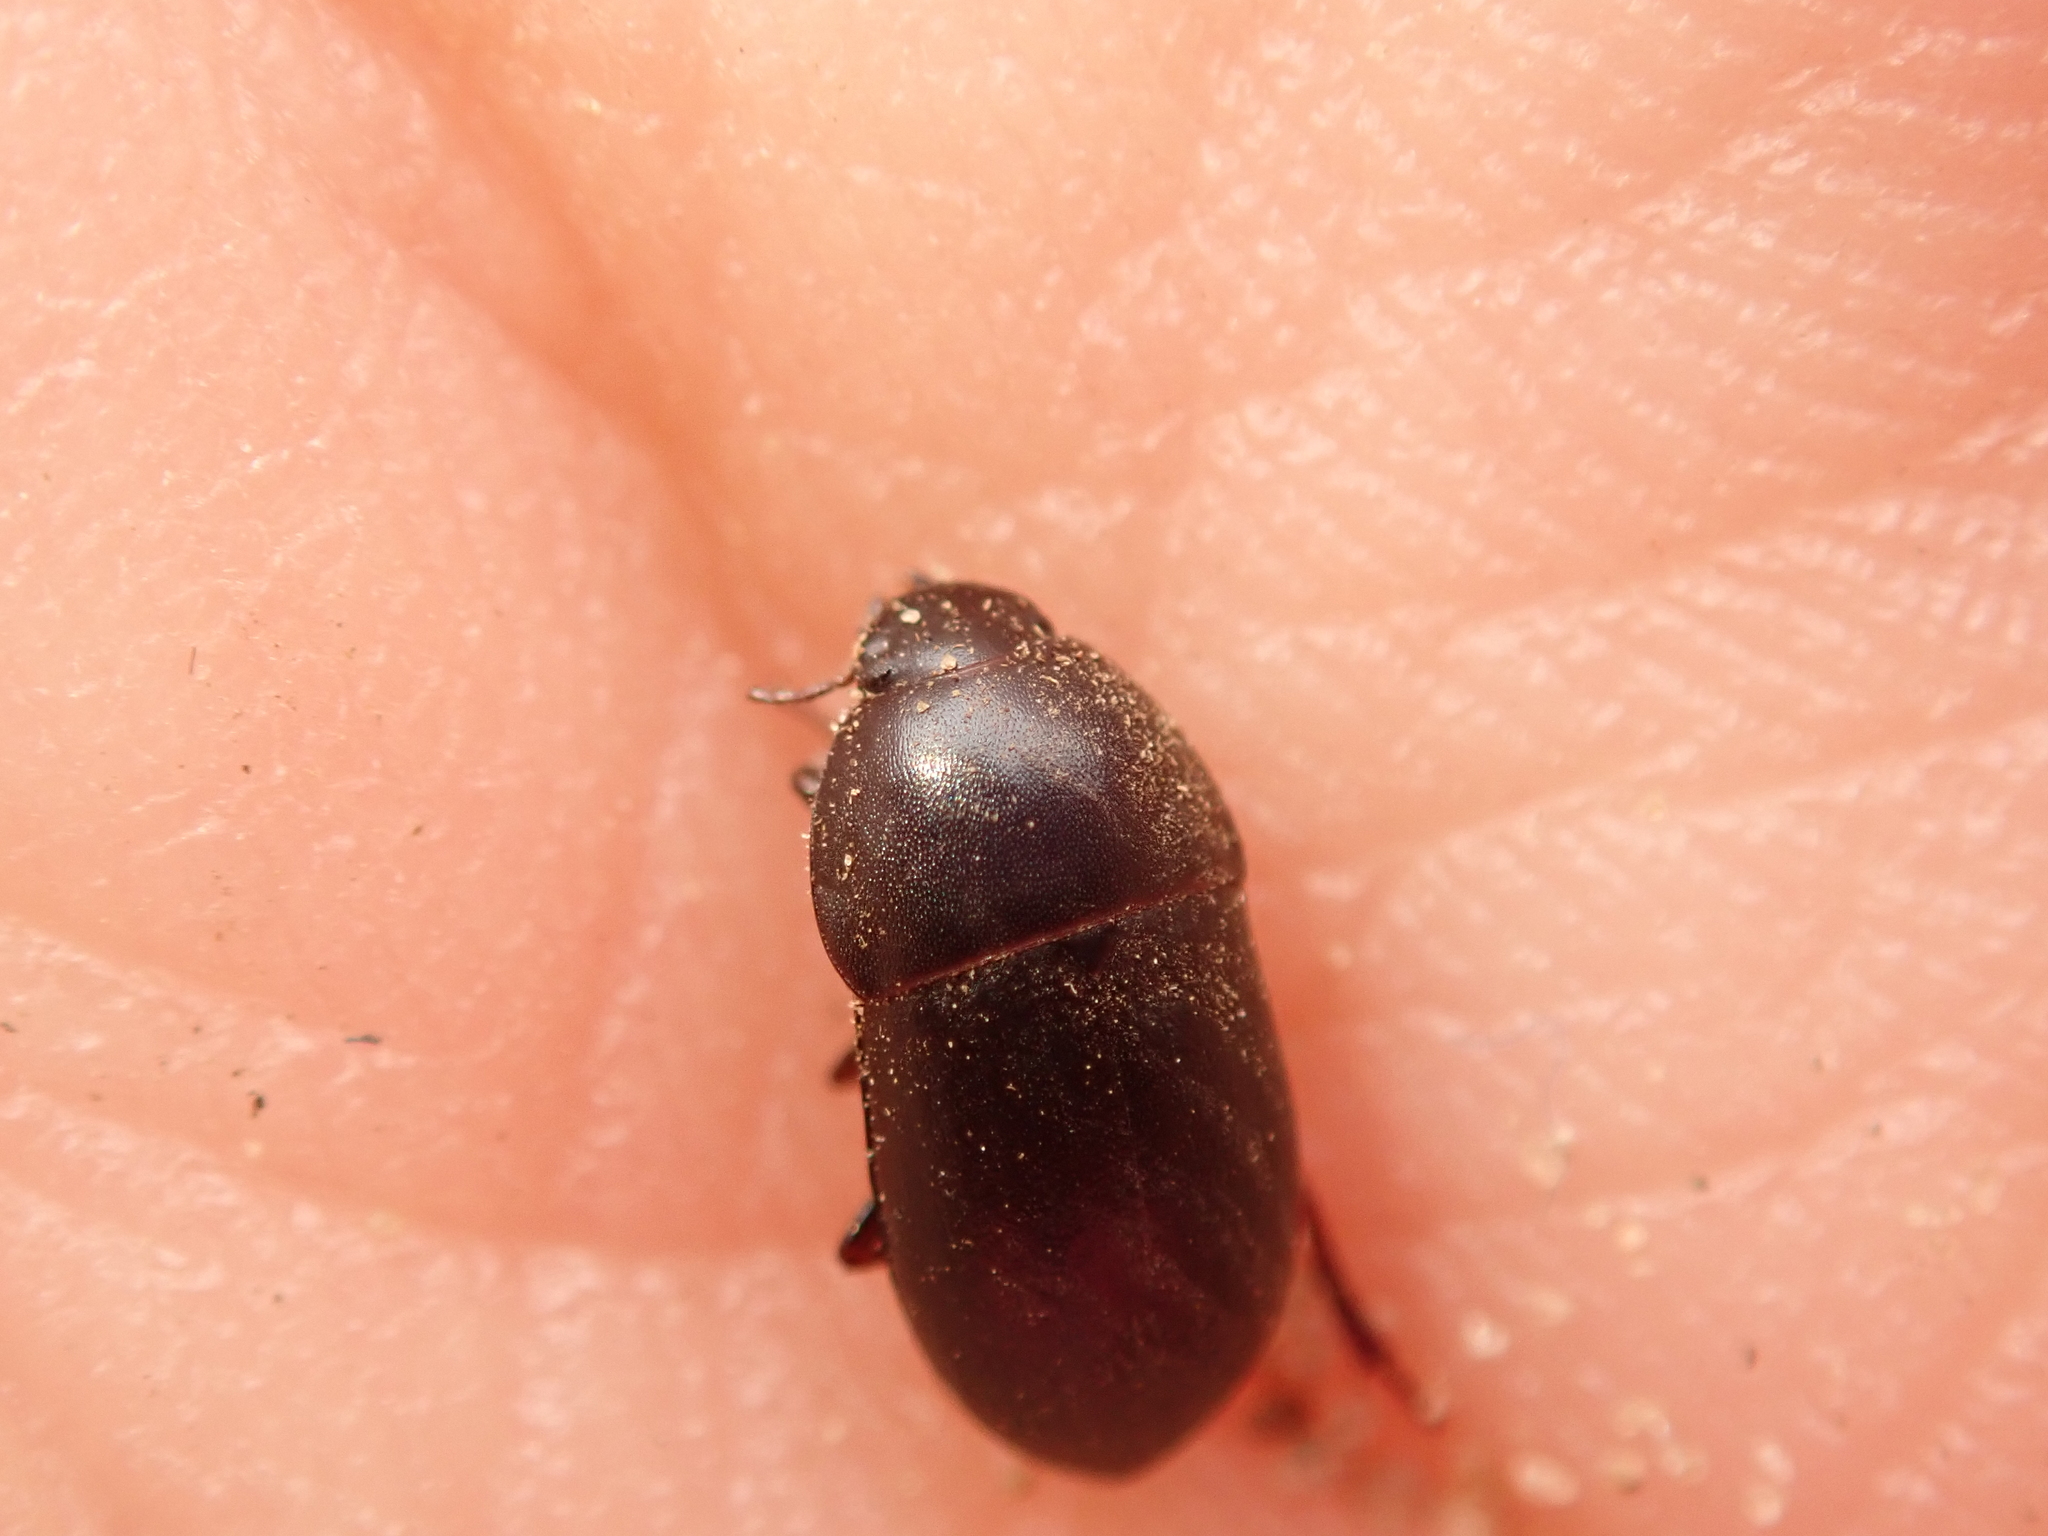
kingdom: Animalia
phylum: Arthropoda
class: Insecta
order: Coleoptera
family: Tenebrionidae
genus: Crypticus
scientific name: Crypticus quisquilius
